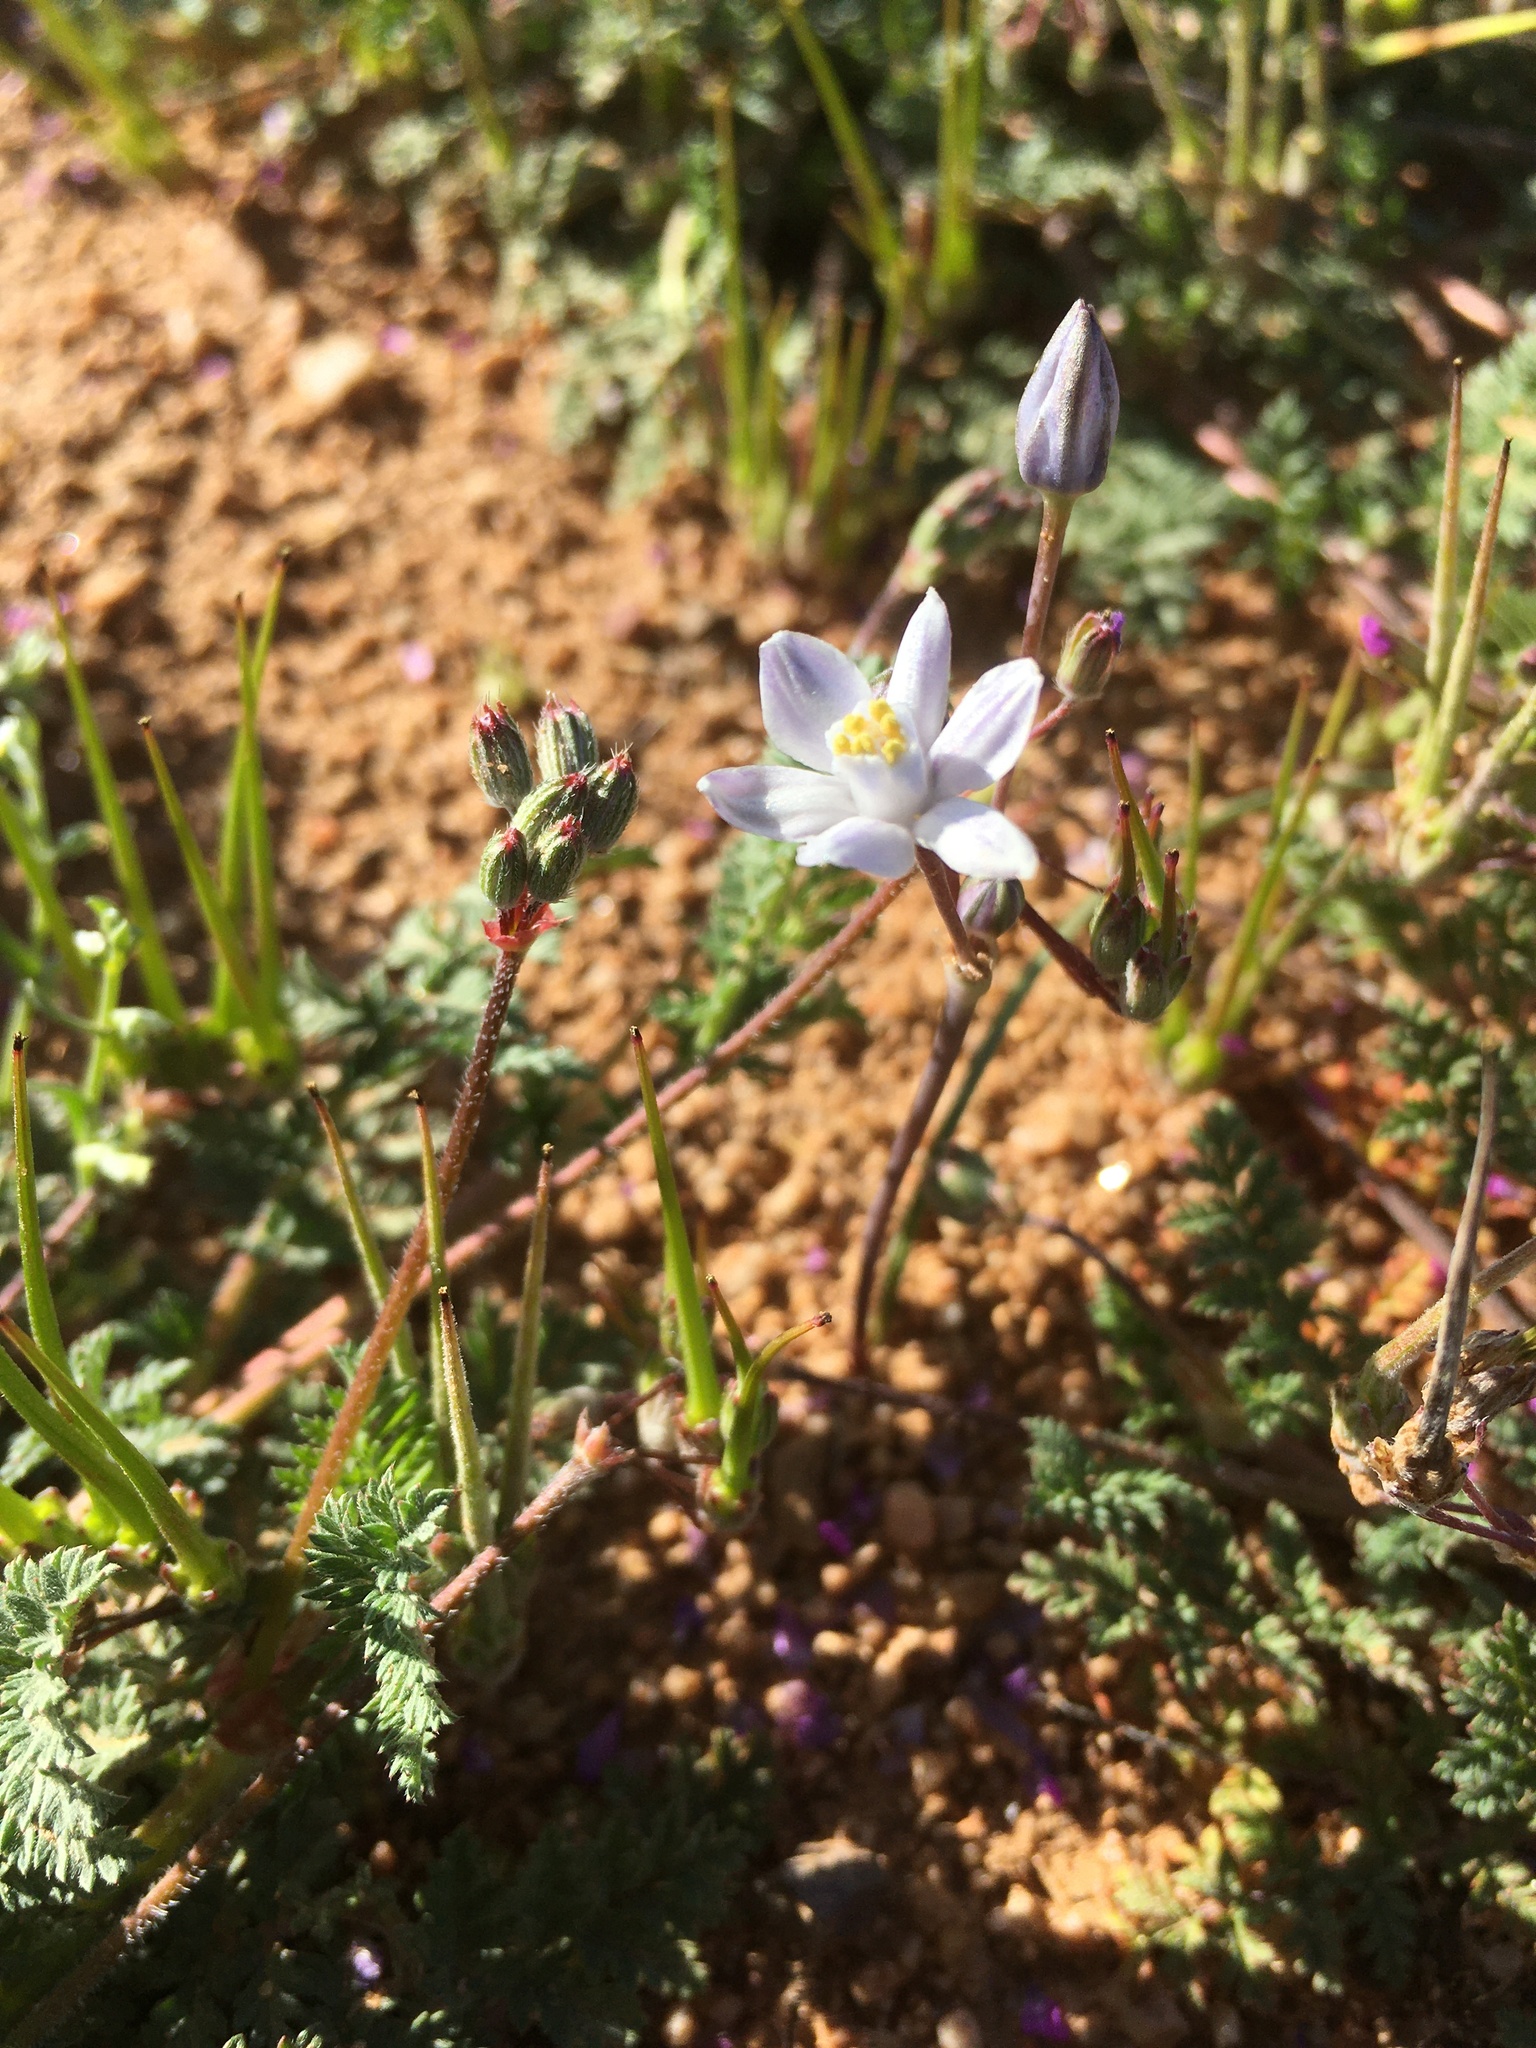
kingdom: Plantae
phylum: Tracheophyta
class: Liliopsida
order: Asparagales
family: Asparagaceae
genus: Muilla
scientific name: Muilla lordsburgana
